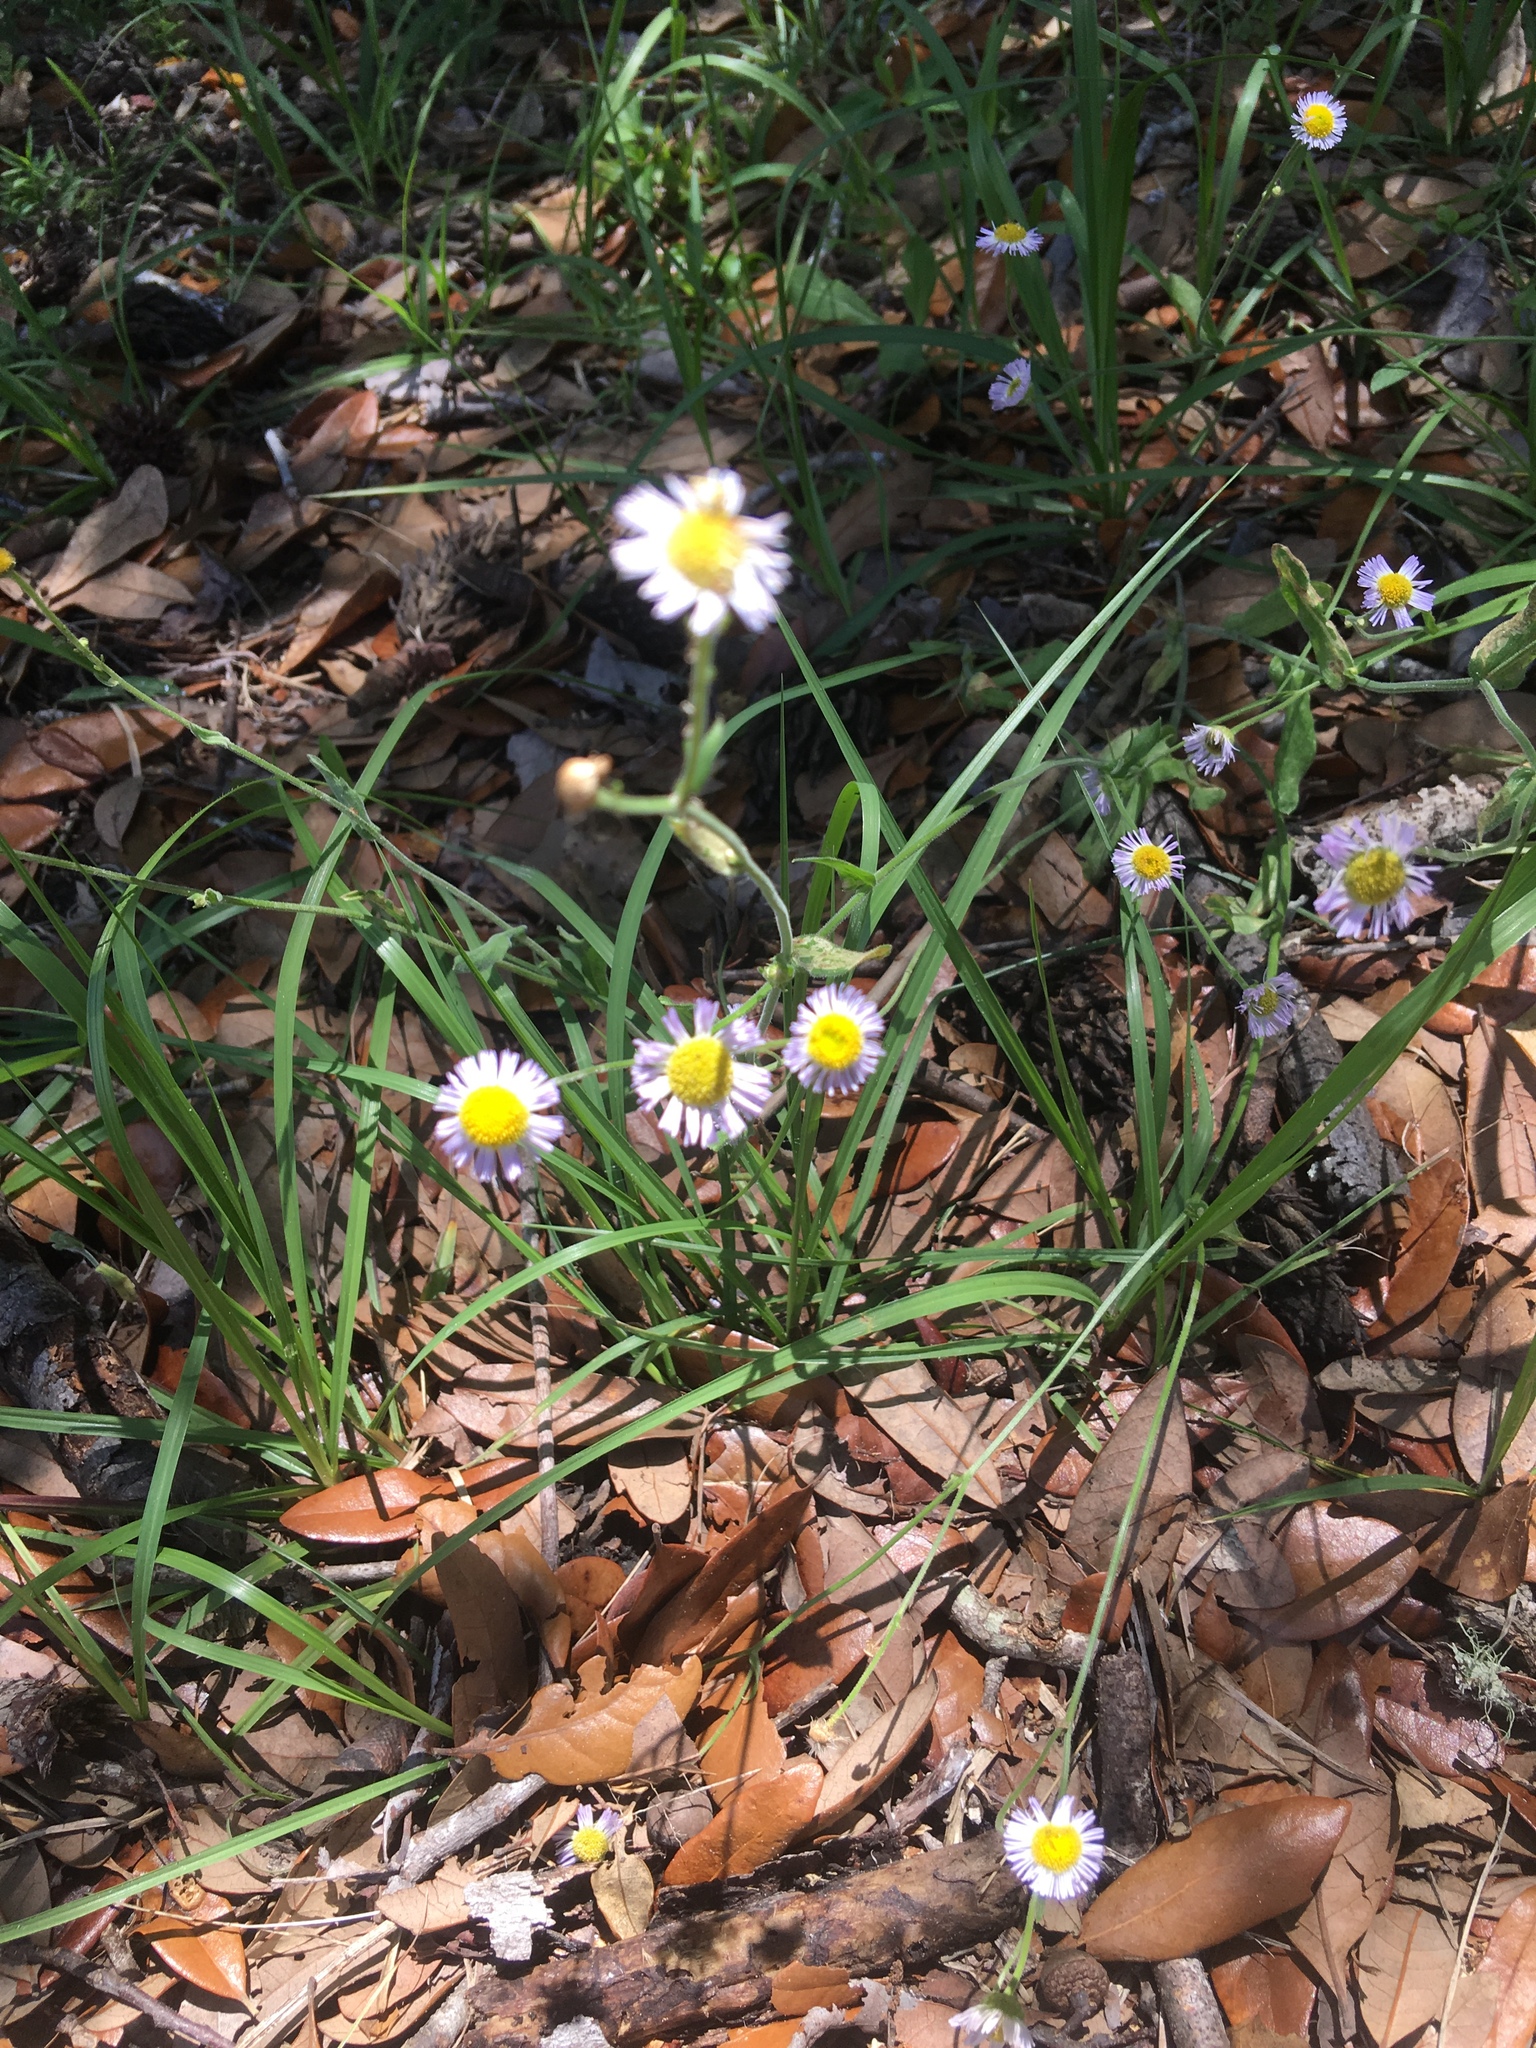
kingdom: Plantae
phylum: Tracheophyta
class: Magnoliopsida
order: Asterales
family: Asteraceae
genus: Erigeron
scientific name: Erigeron quercifolius
